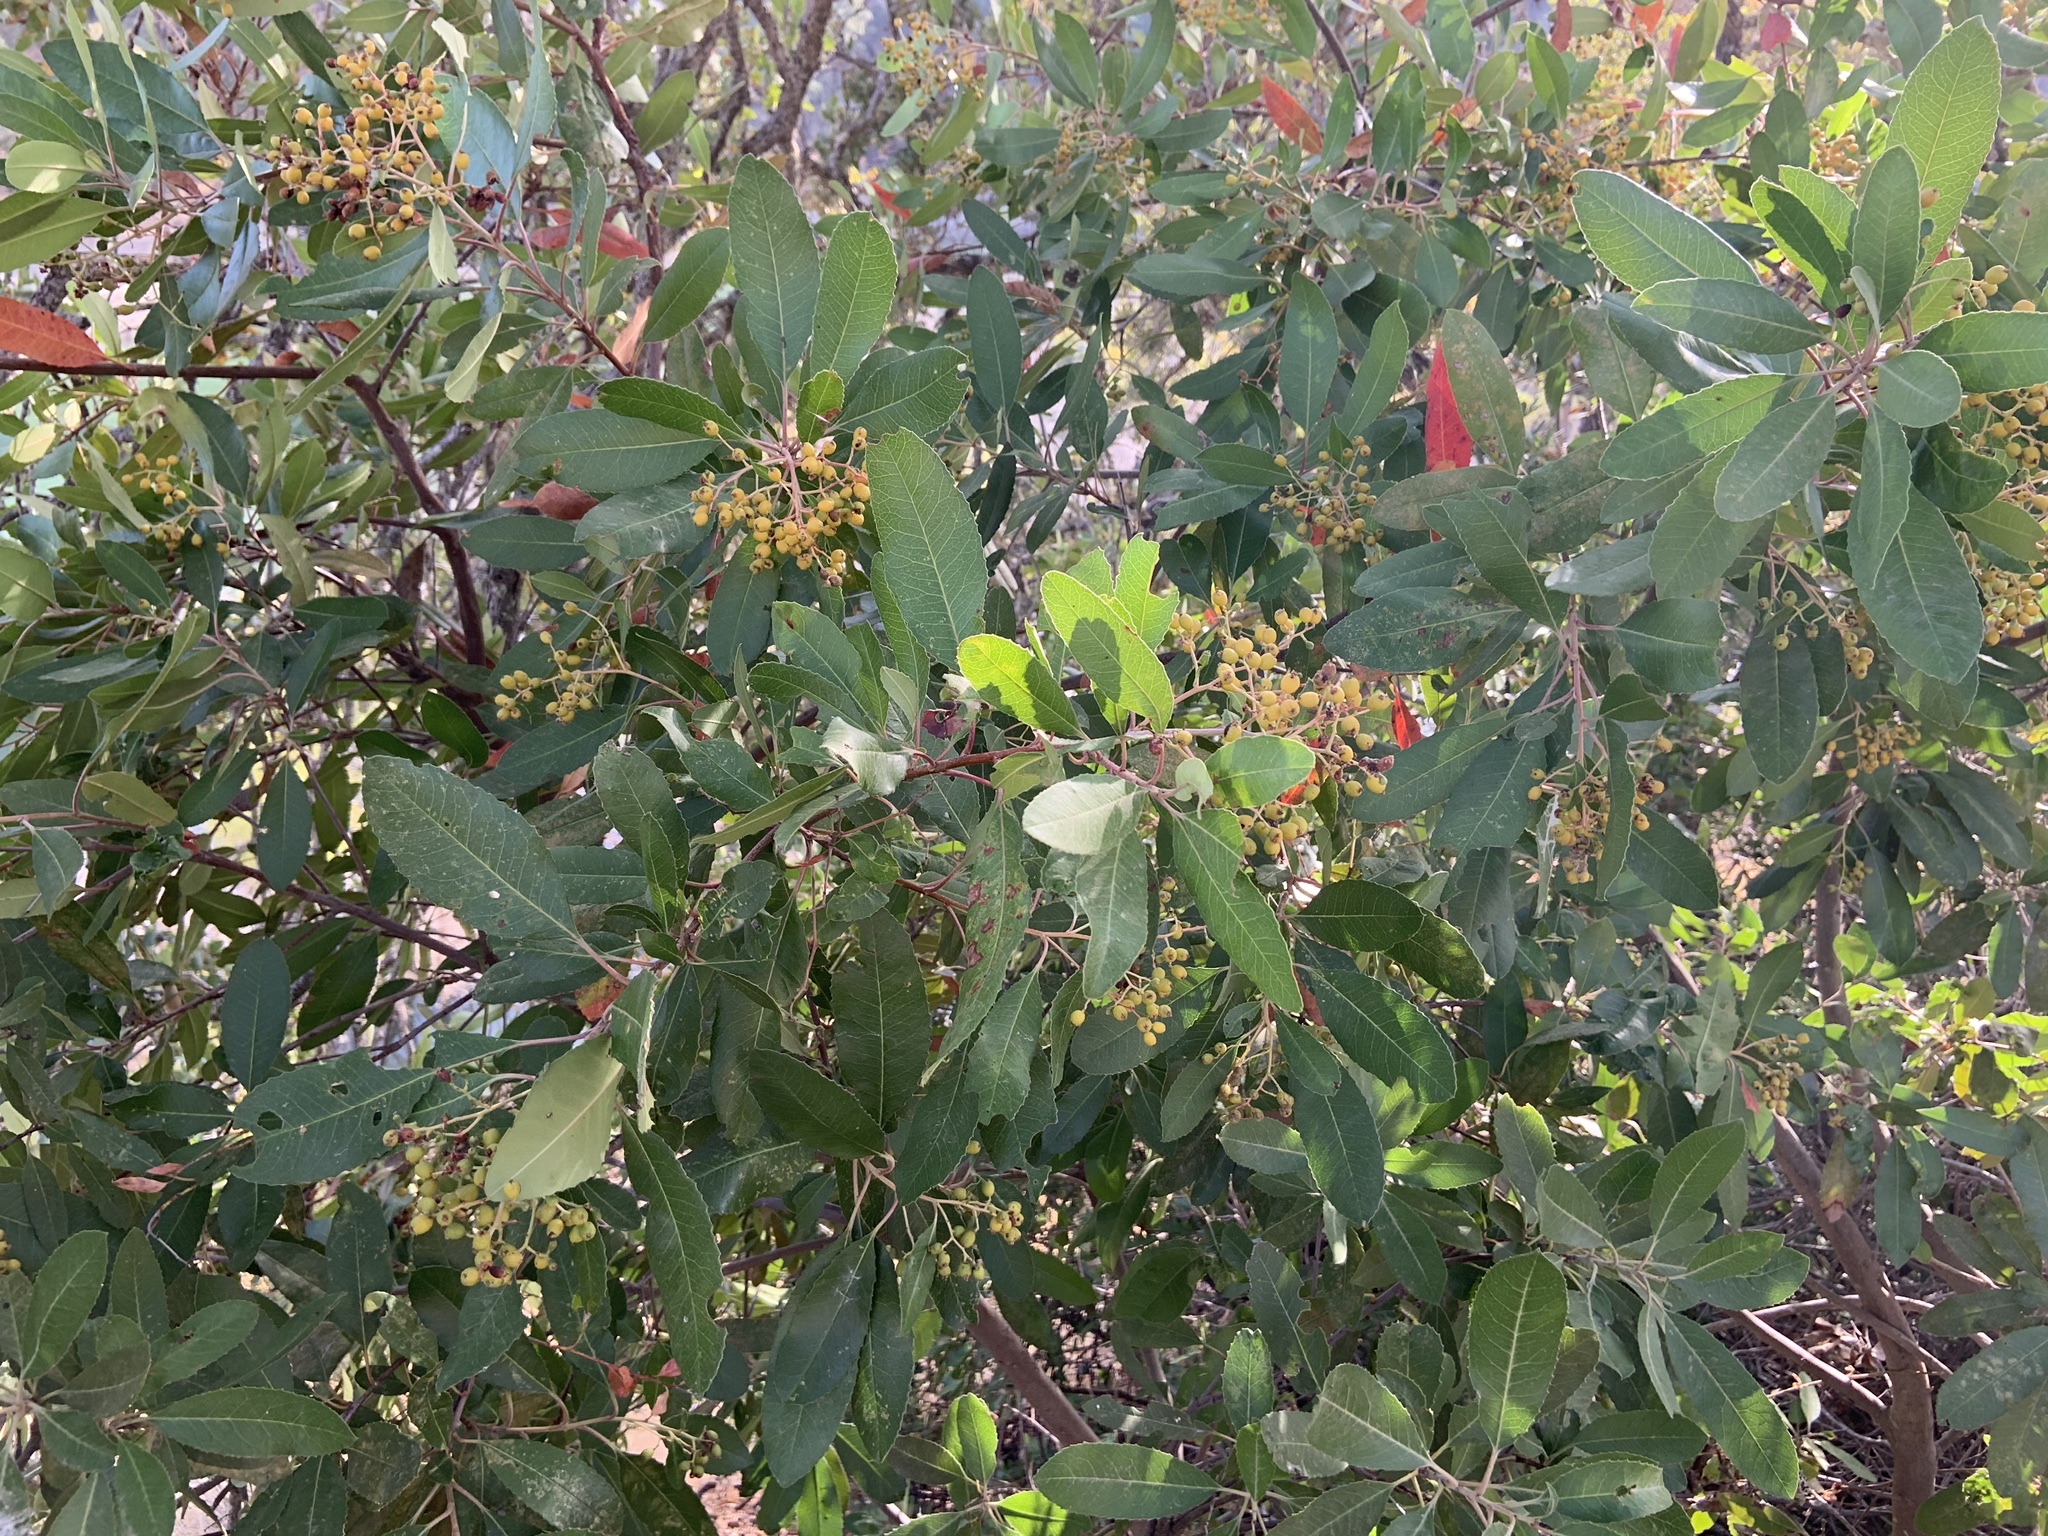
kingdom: Plantae
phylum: Tracheophyta
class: Magnoliopsida
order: Rosales
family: Rosaceae
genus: Heteromeles
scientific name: Heteromeles arbutifolia
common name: California-holly
